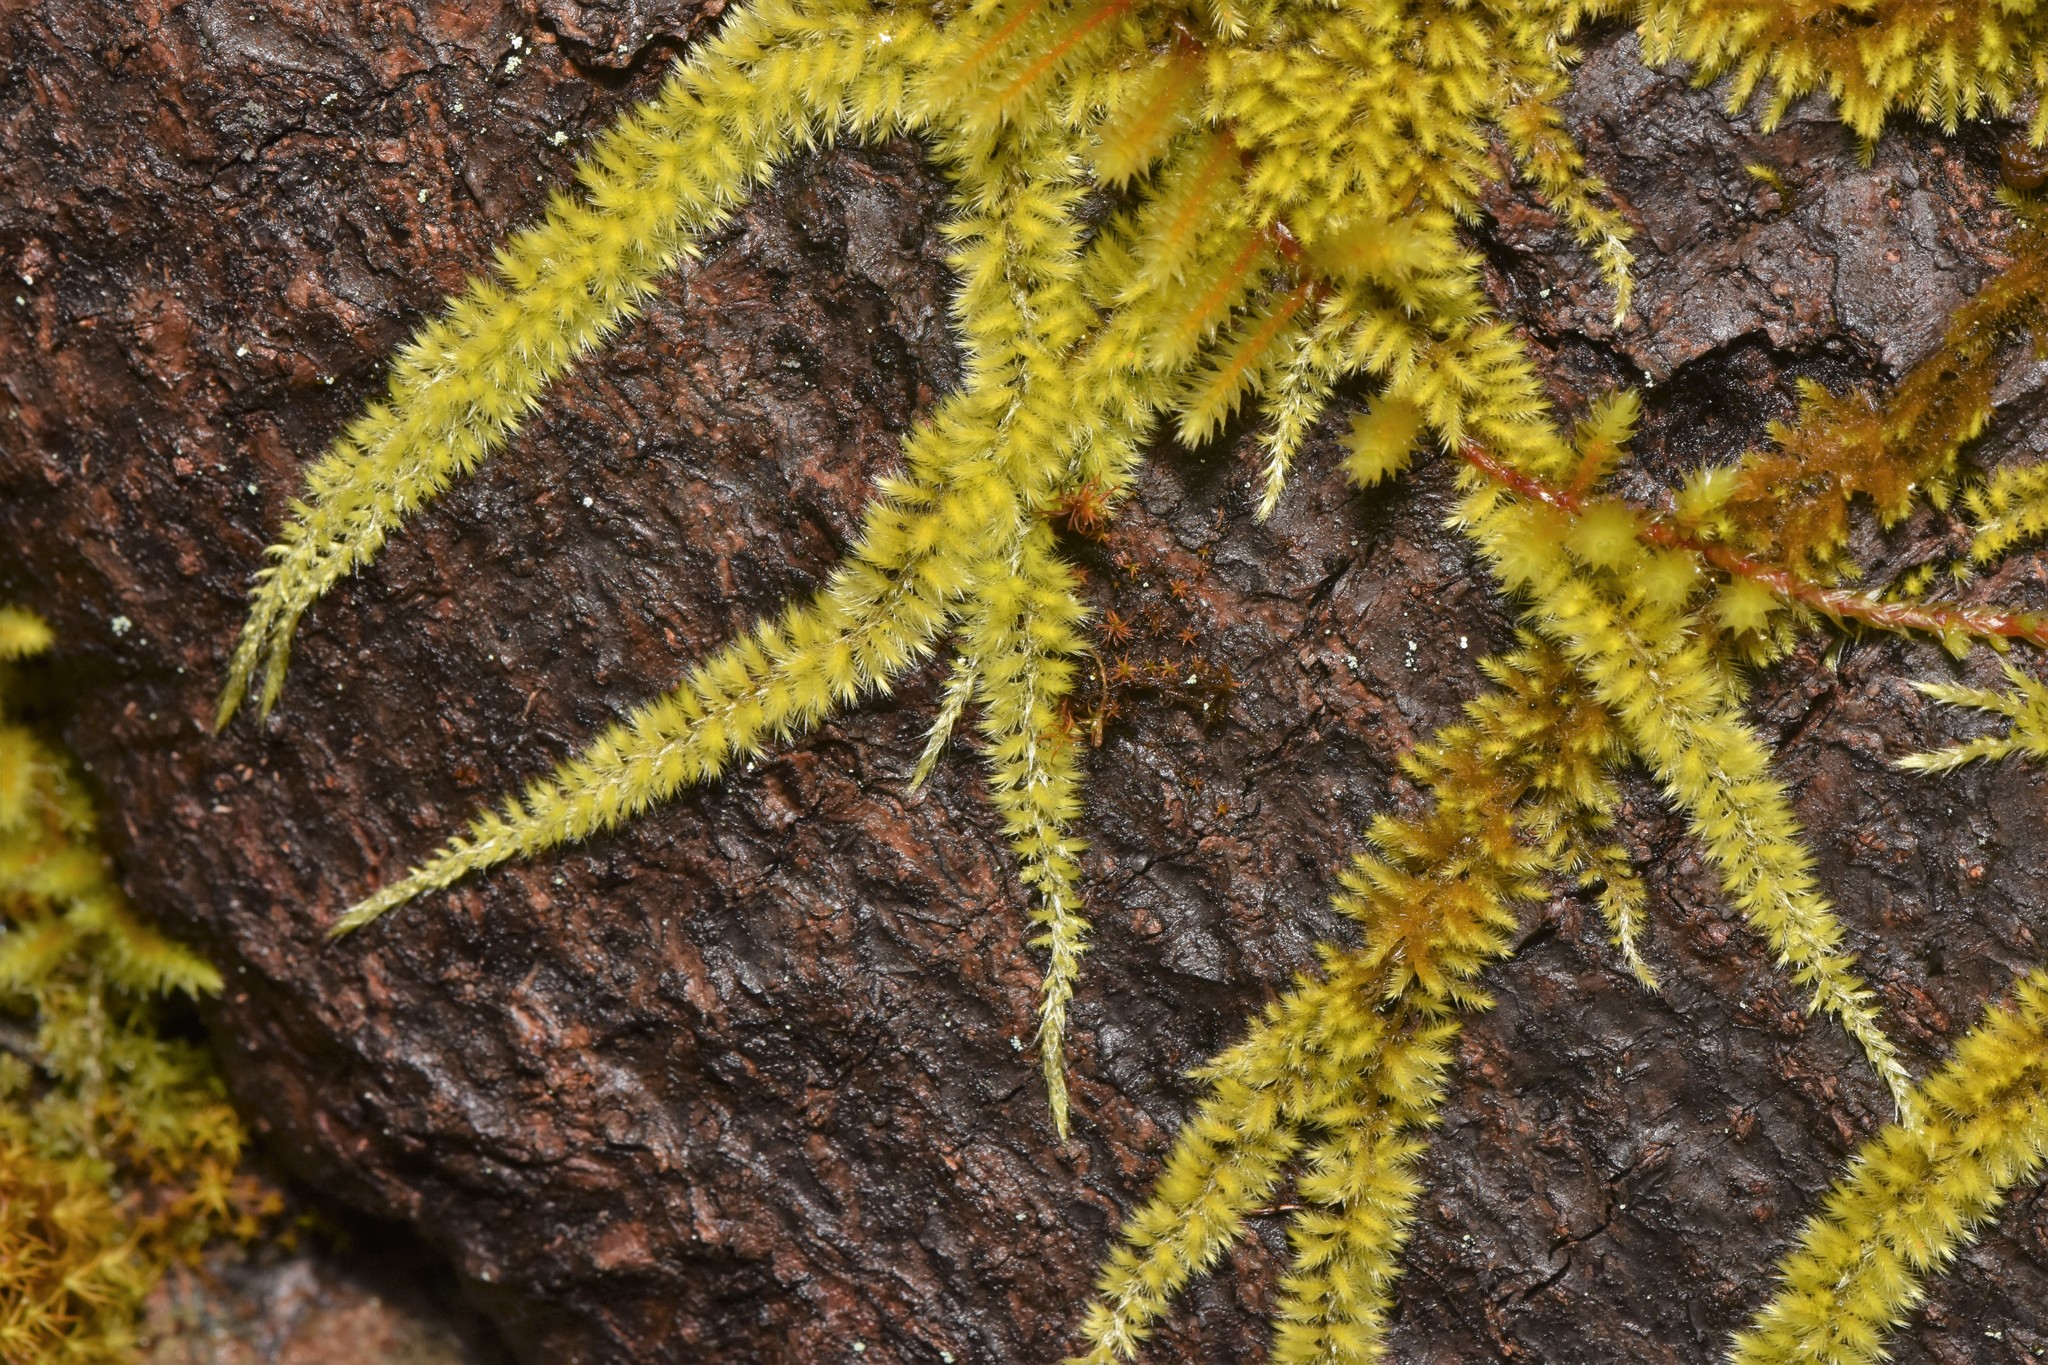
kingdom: Plantae
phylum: Bryophyta
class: Bryopsida
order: Hypnales
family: Brachytheciaceae
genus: Homalothecium
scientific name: Homalothecium nuttallii
